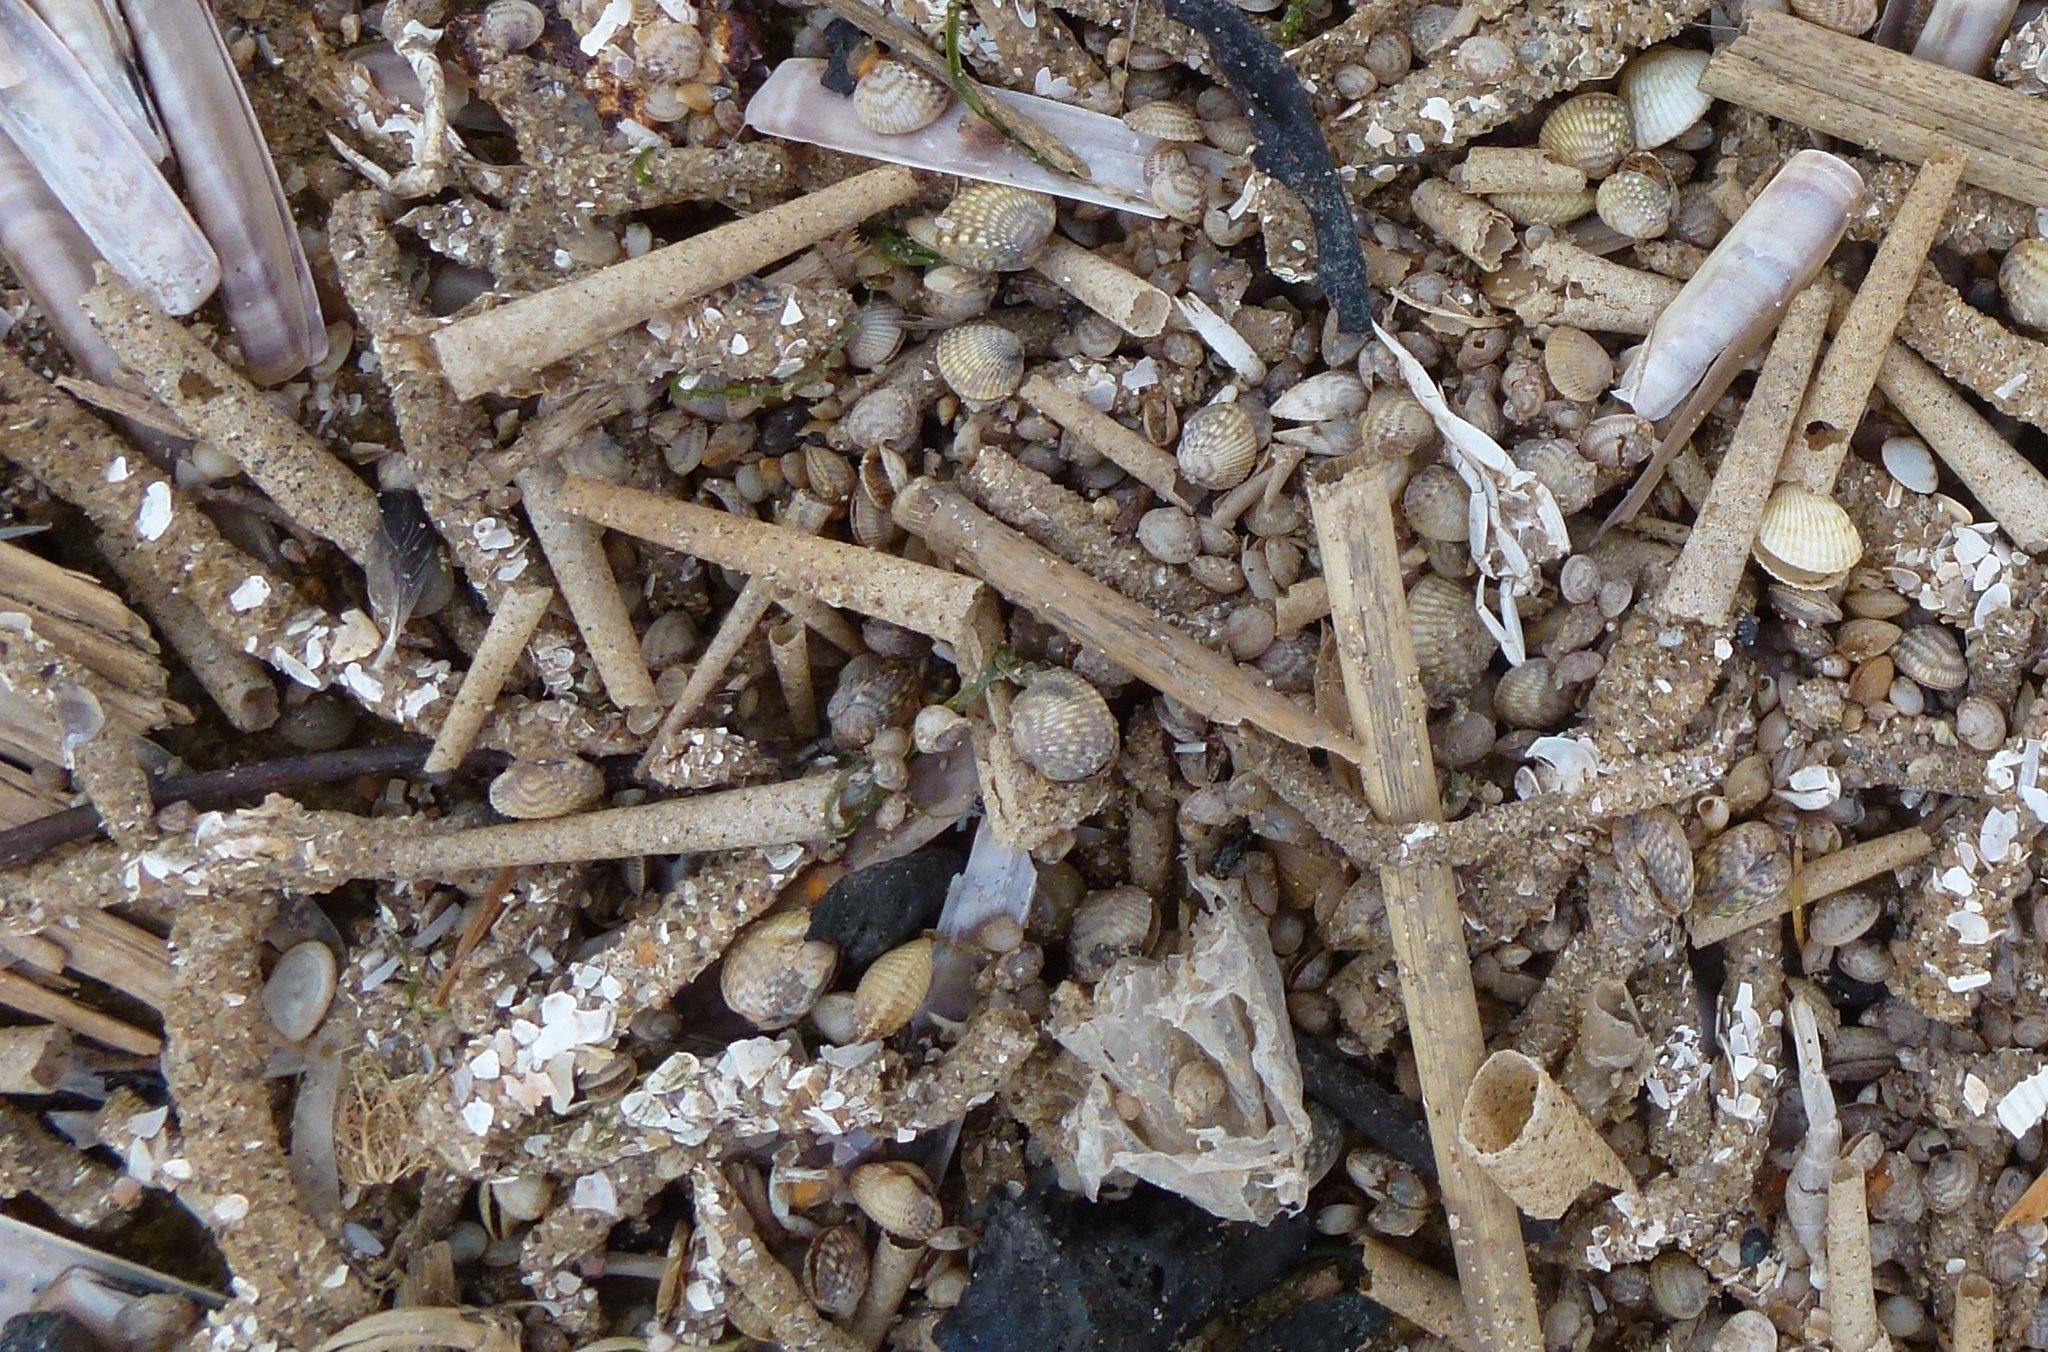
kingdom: Animalia
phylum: Annelida
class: Polychaeta
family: Pectinariidae
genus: Pectinaria
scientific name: Pectinaria belgica
